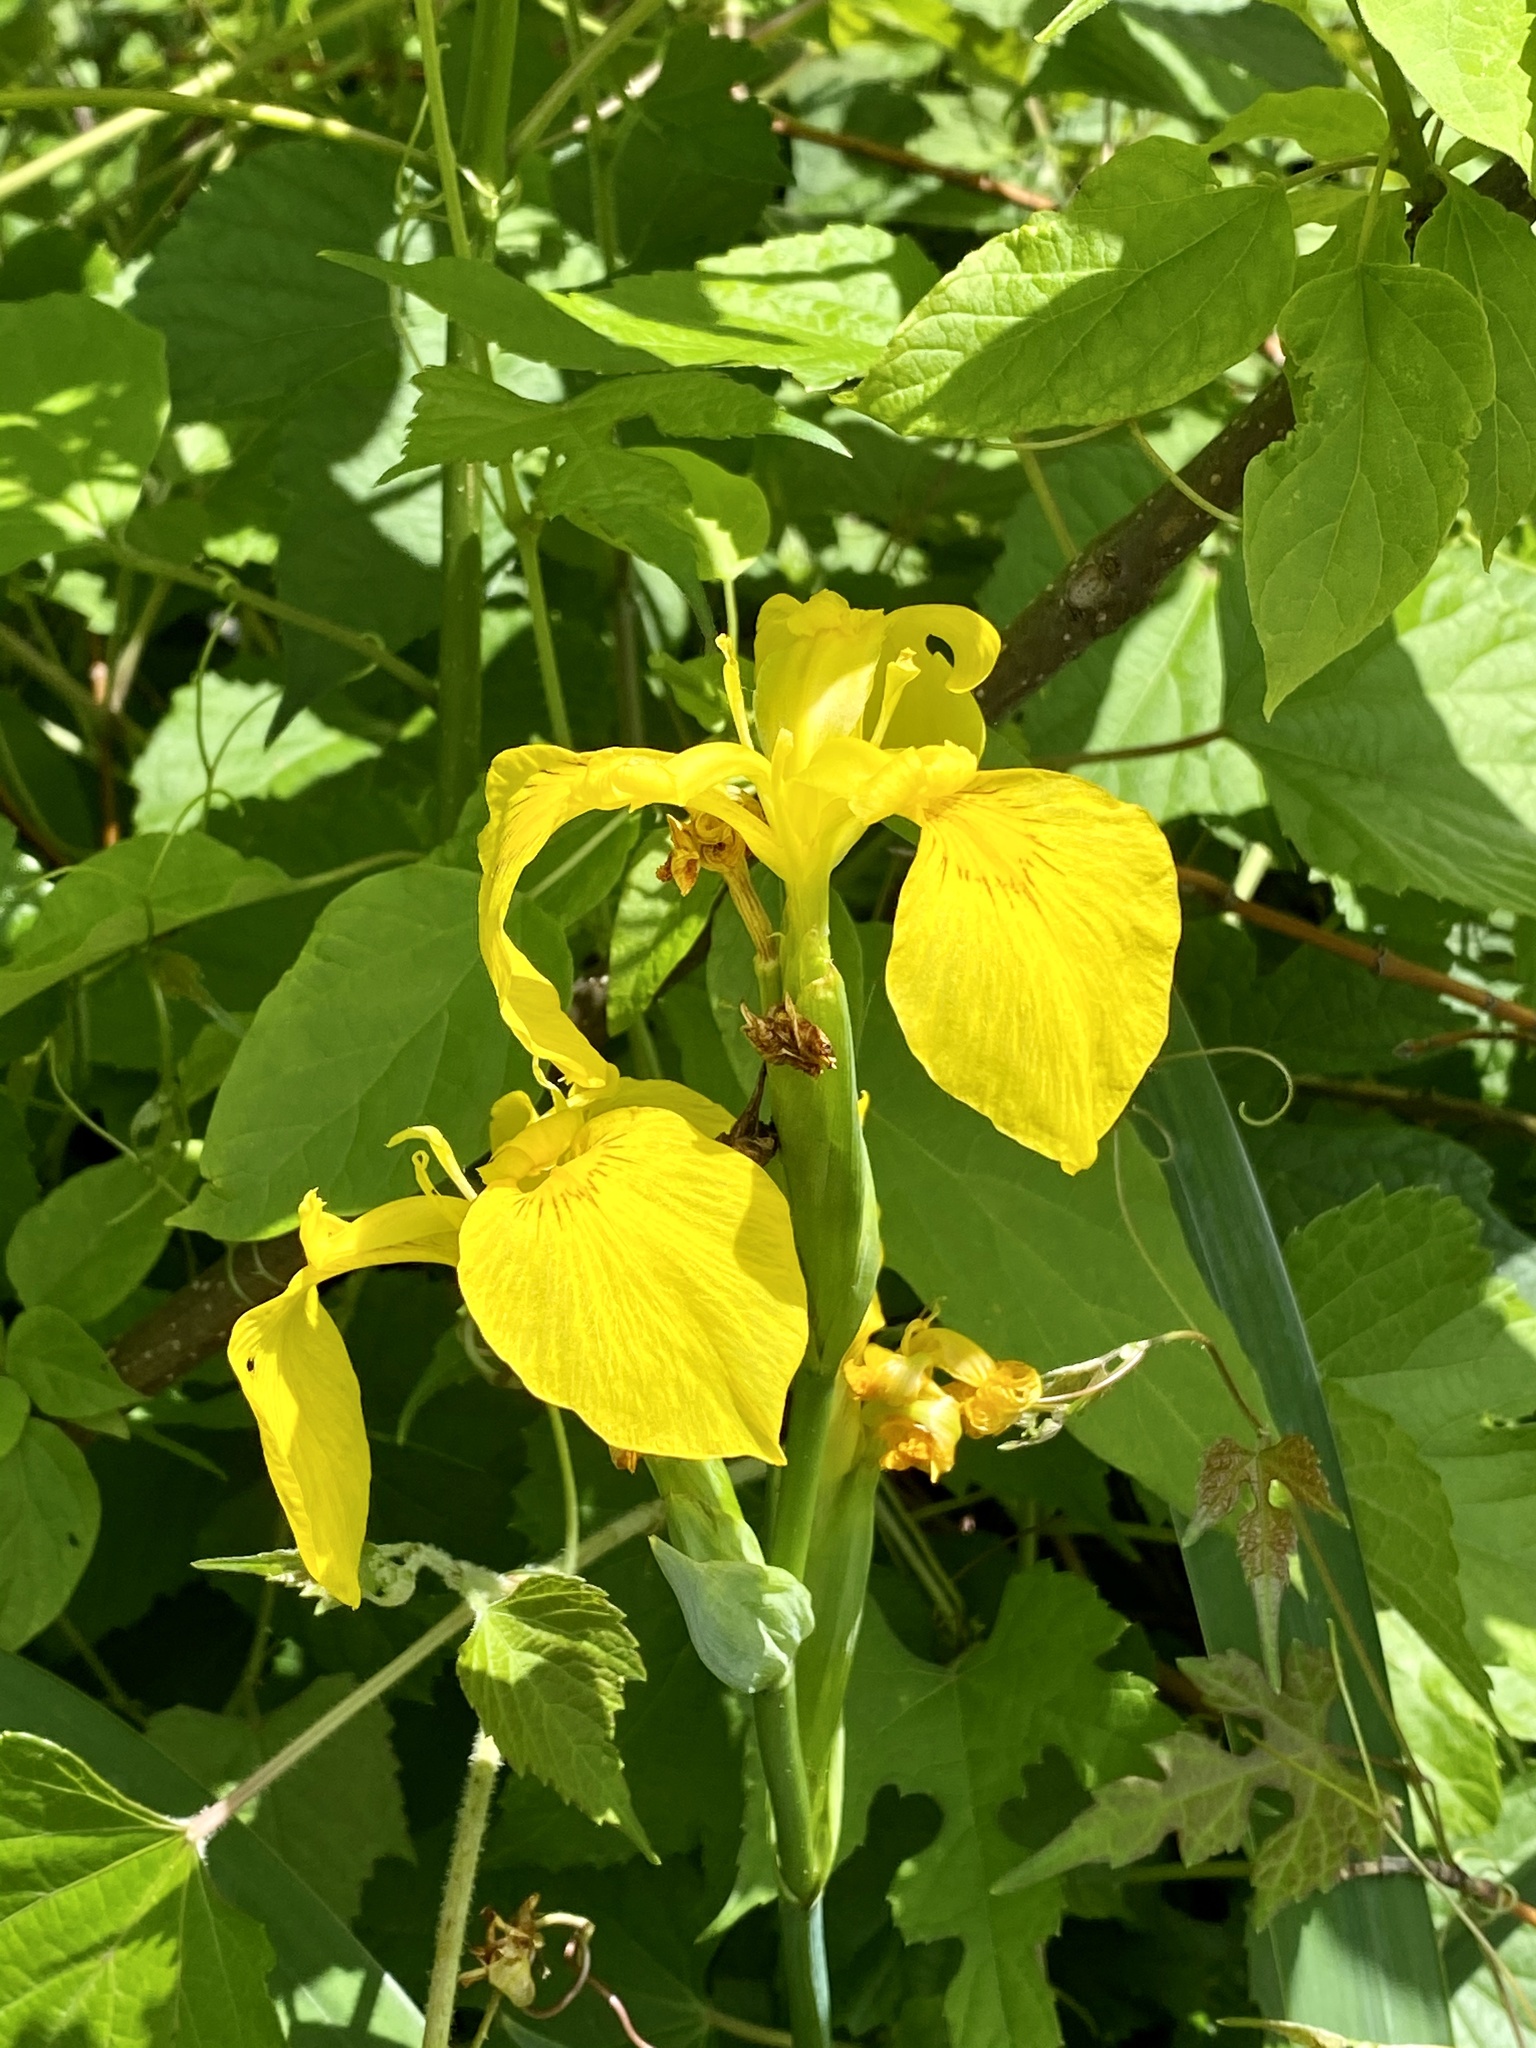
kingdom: Plantae
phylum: Tracheophyta
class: Liliopsida
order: Asparagales
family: Iridaceae
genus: Iris
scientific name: Iris pseudacorus
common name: Yellow flag
